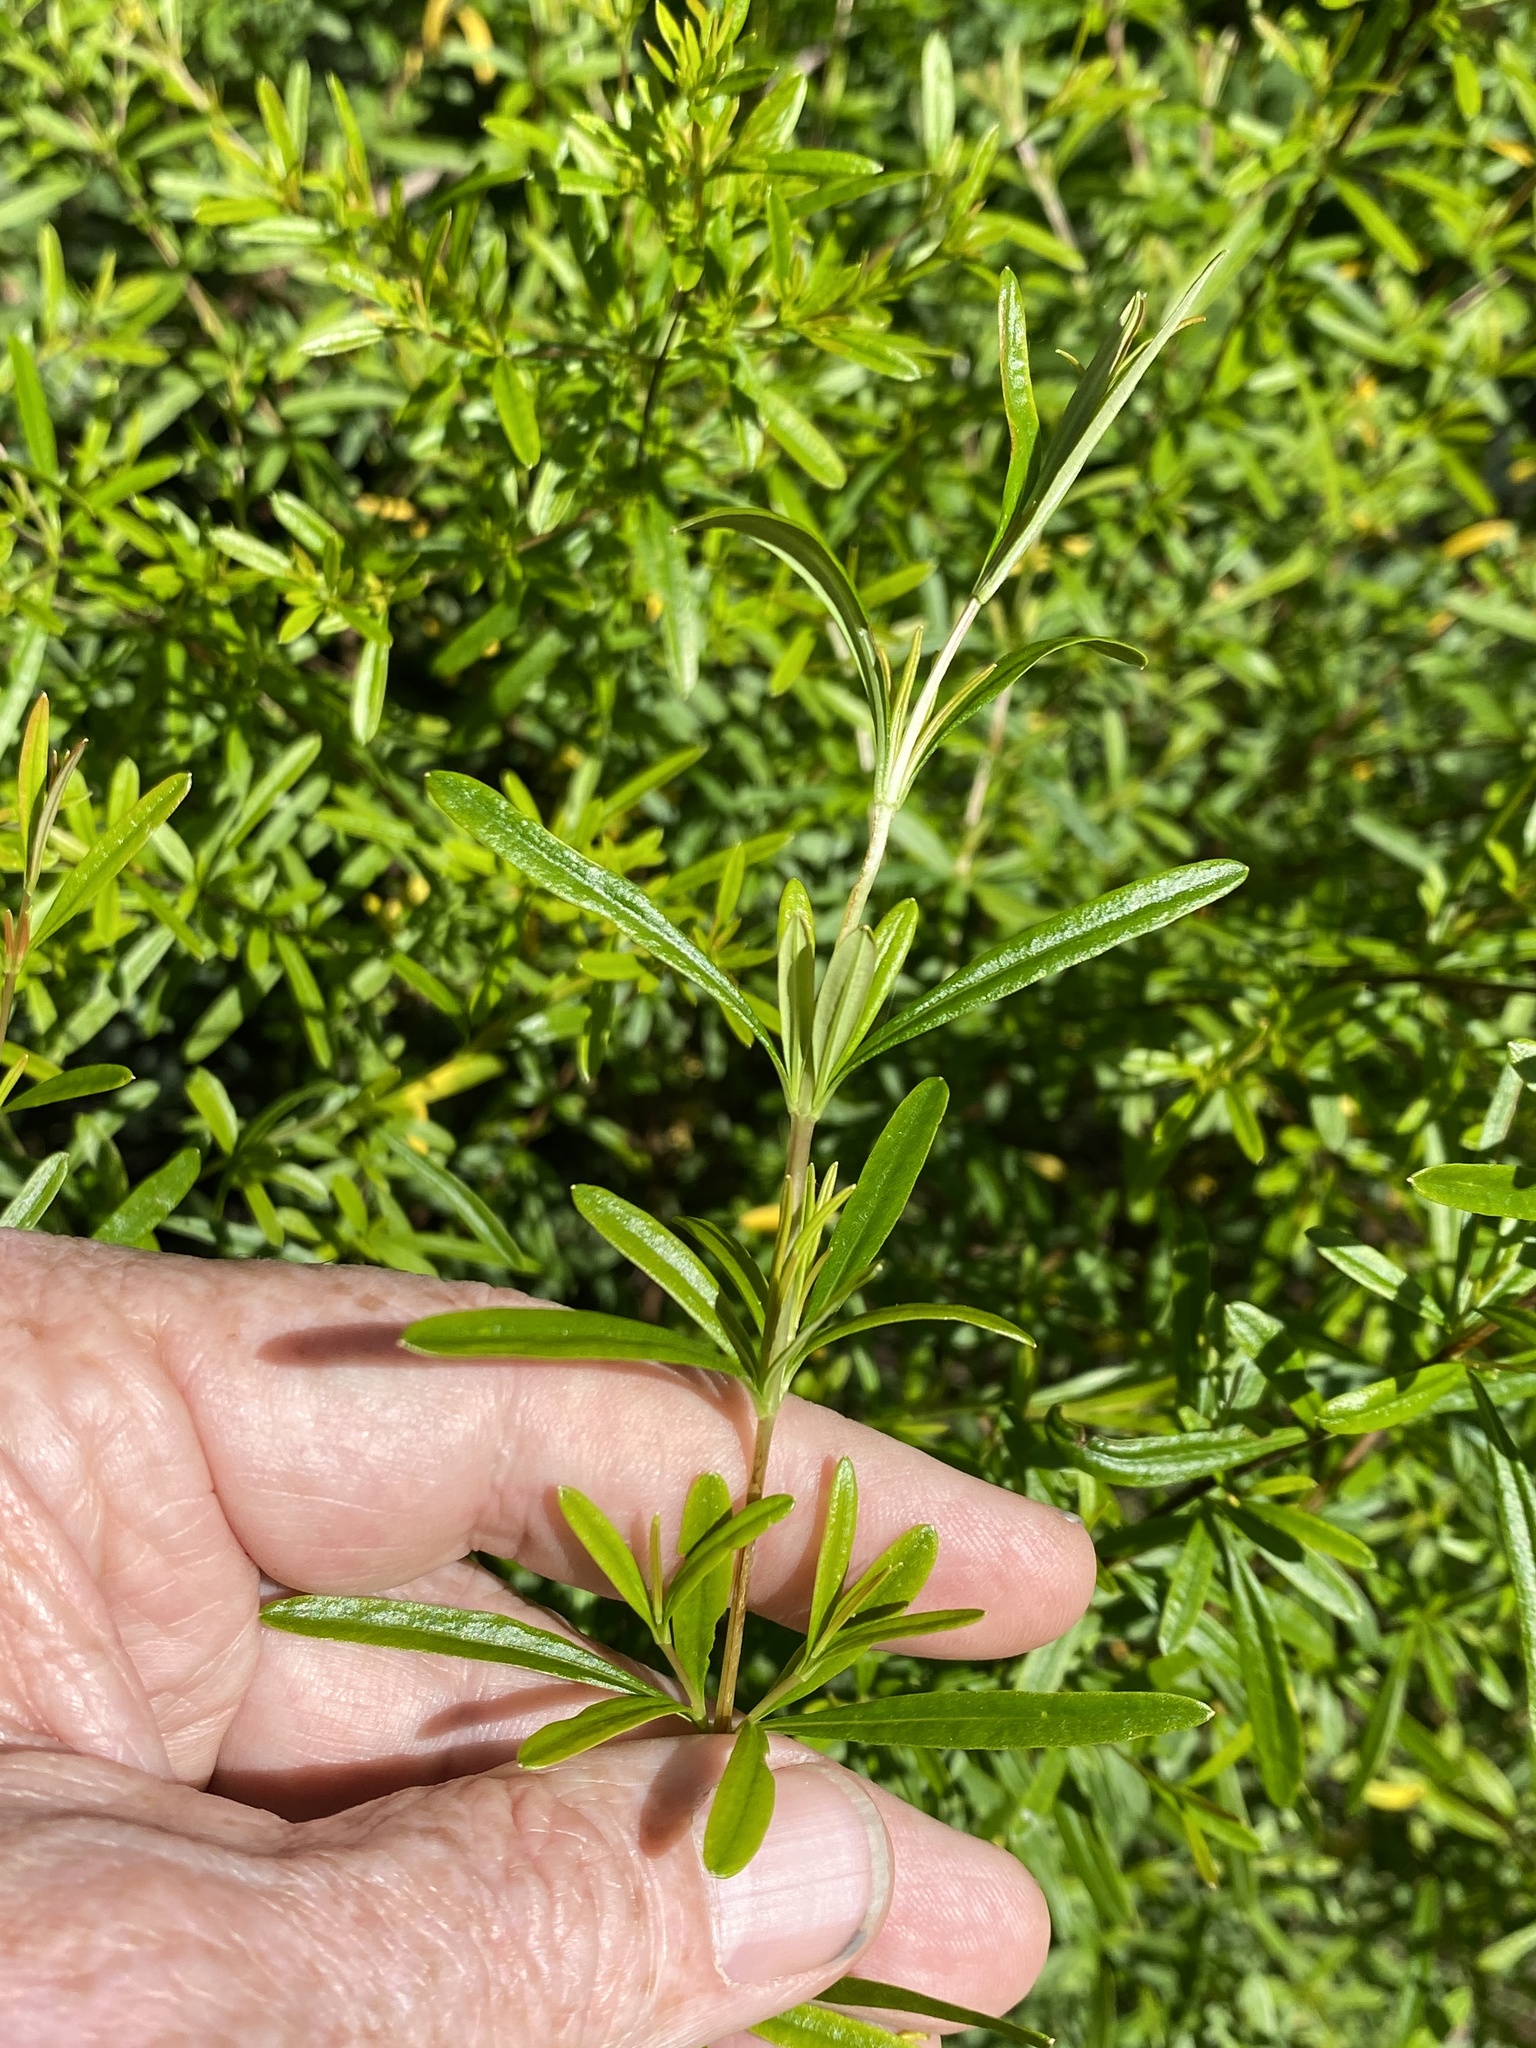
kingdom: Plantae
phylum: Tracheophyta
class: Magnoliopsida
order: Malpighiales
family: Hypericaceae
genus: Hypericum
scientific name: Hypericum galioides
